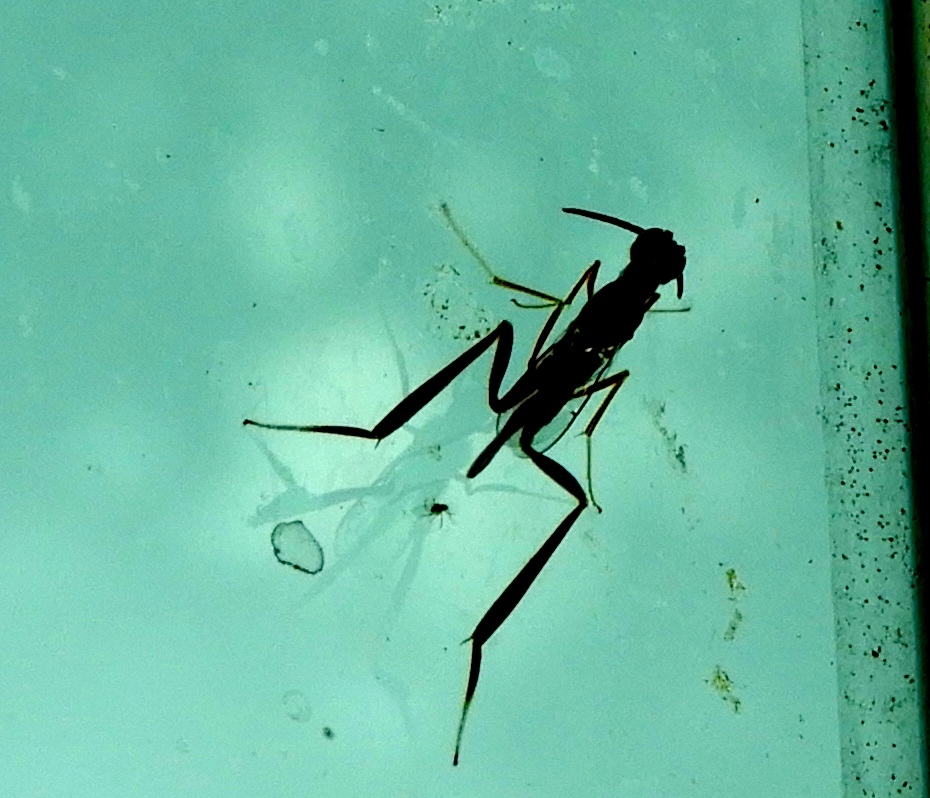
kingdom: Animalia
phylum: Arthropoda
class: Insecta
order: Hymenoptera
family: Pteromalidae
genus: Leptofoenus
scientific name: Leptofoenus
